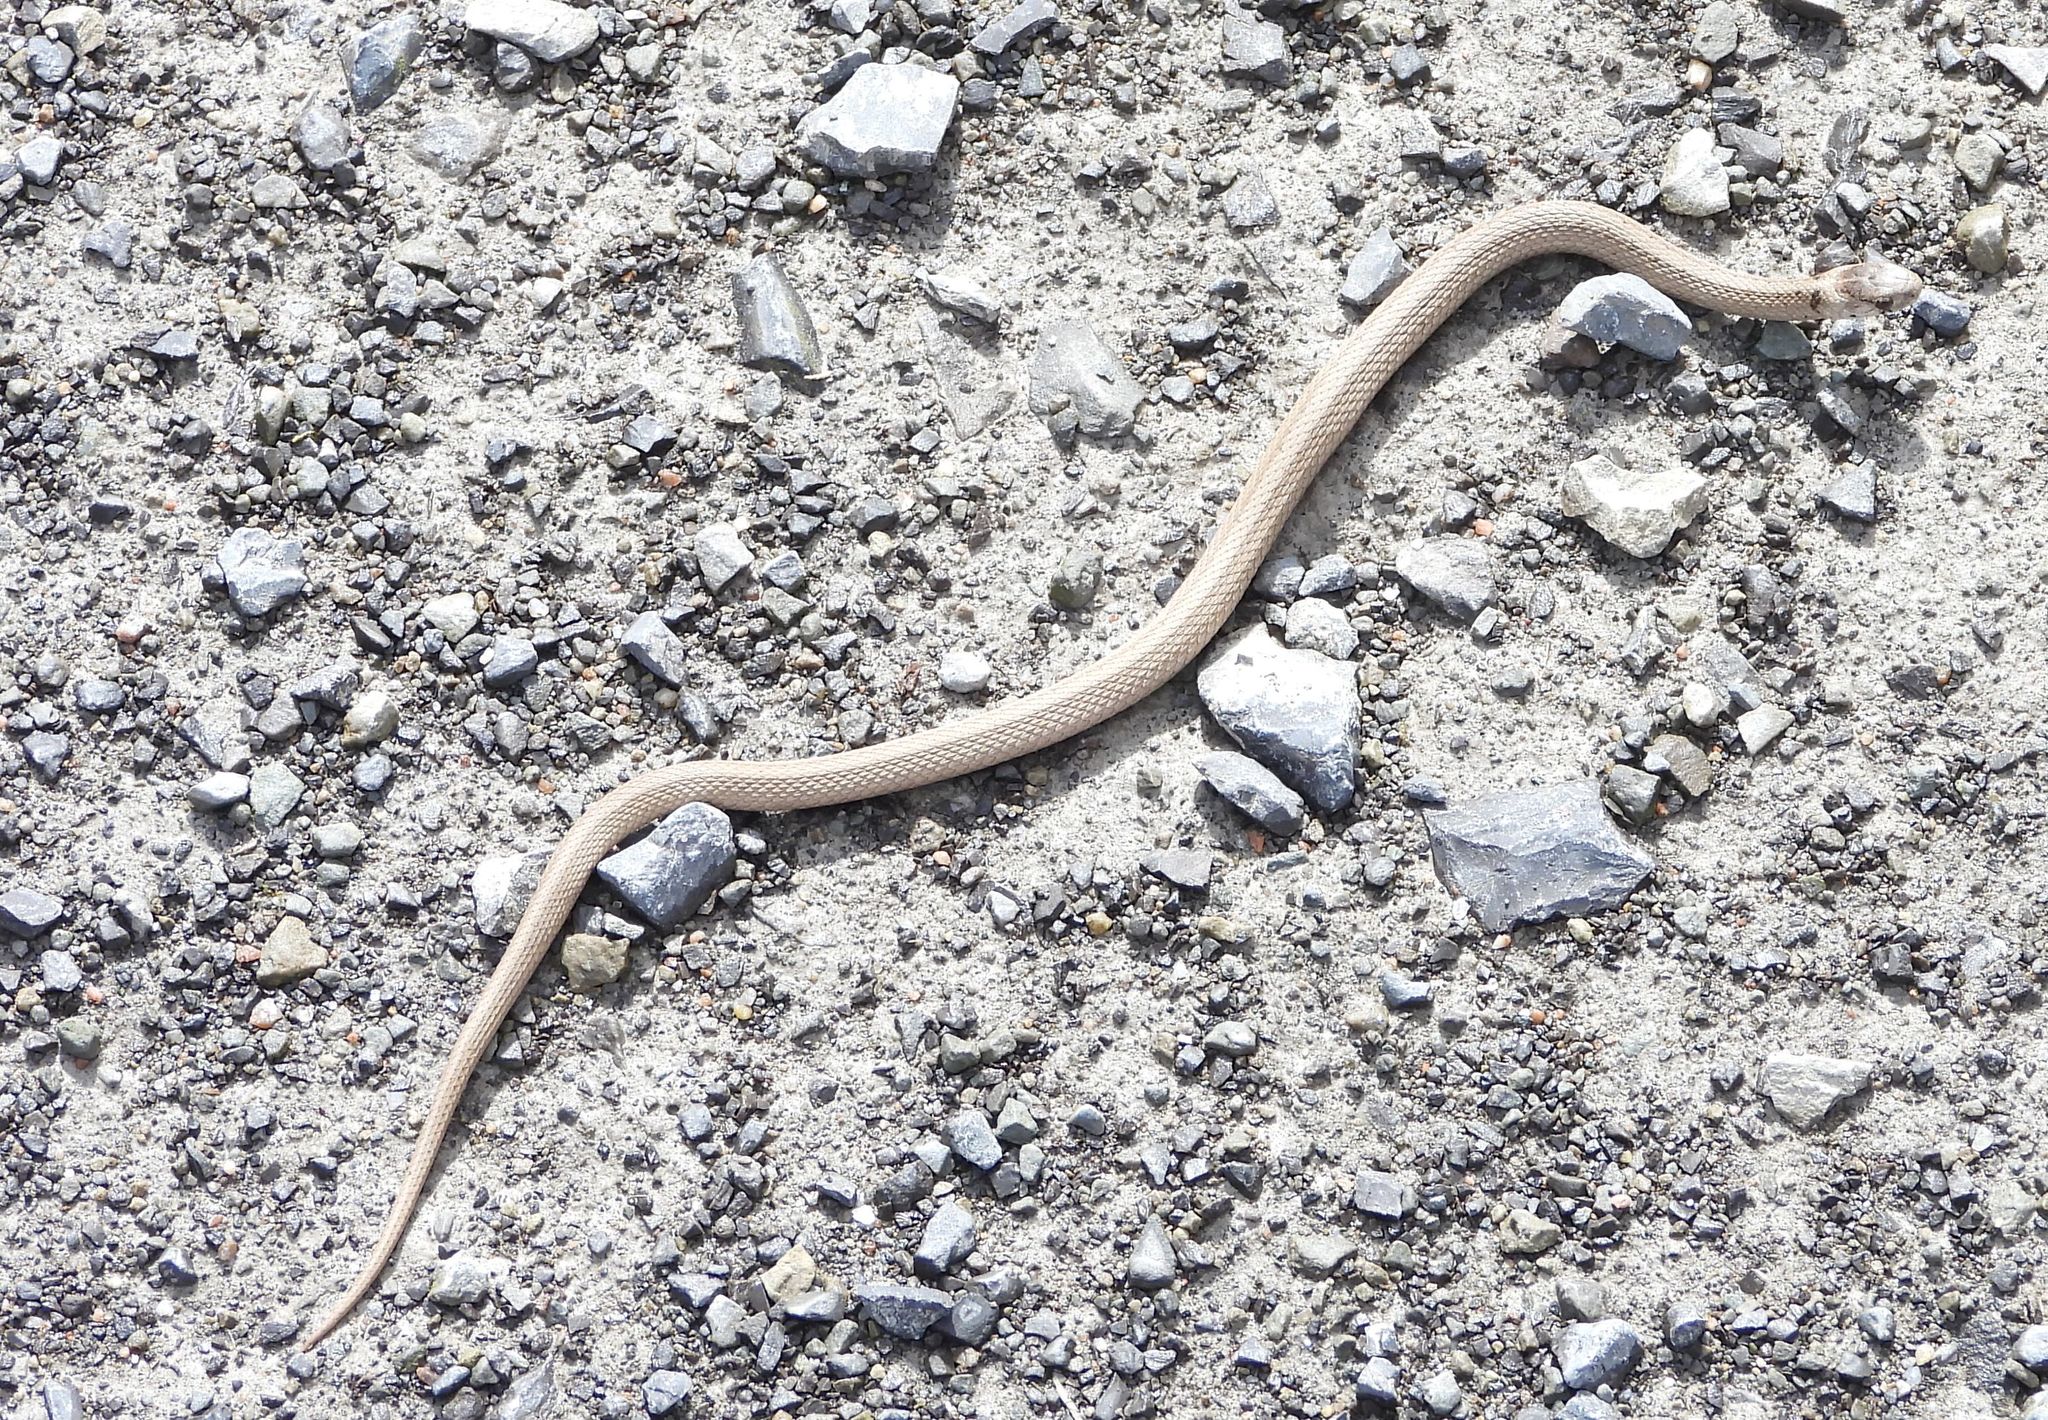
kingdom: Animalia
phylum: Chordata
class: Squamata
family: Colubridae
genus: Storeria
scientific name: Storeria dekayi
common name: (dekay’s) brown snake
